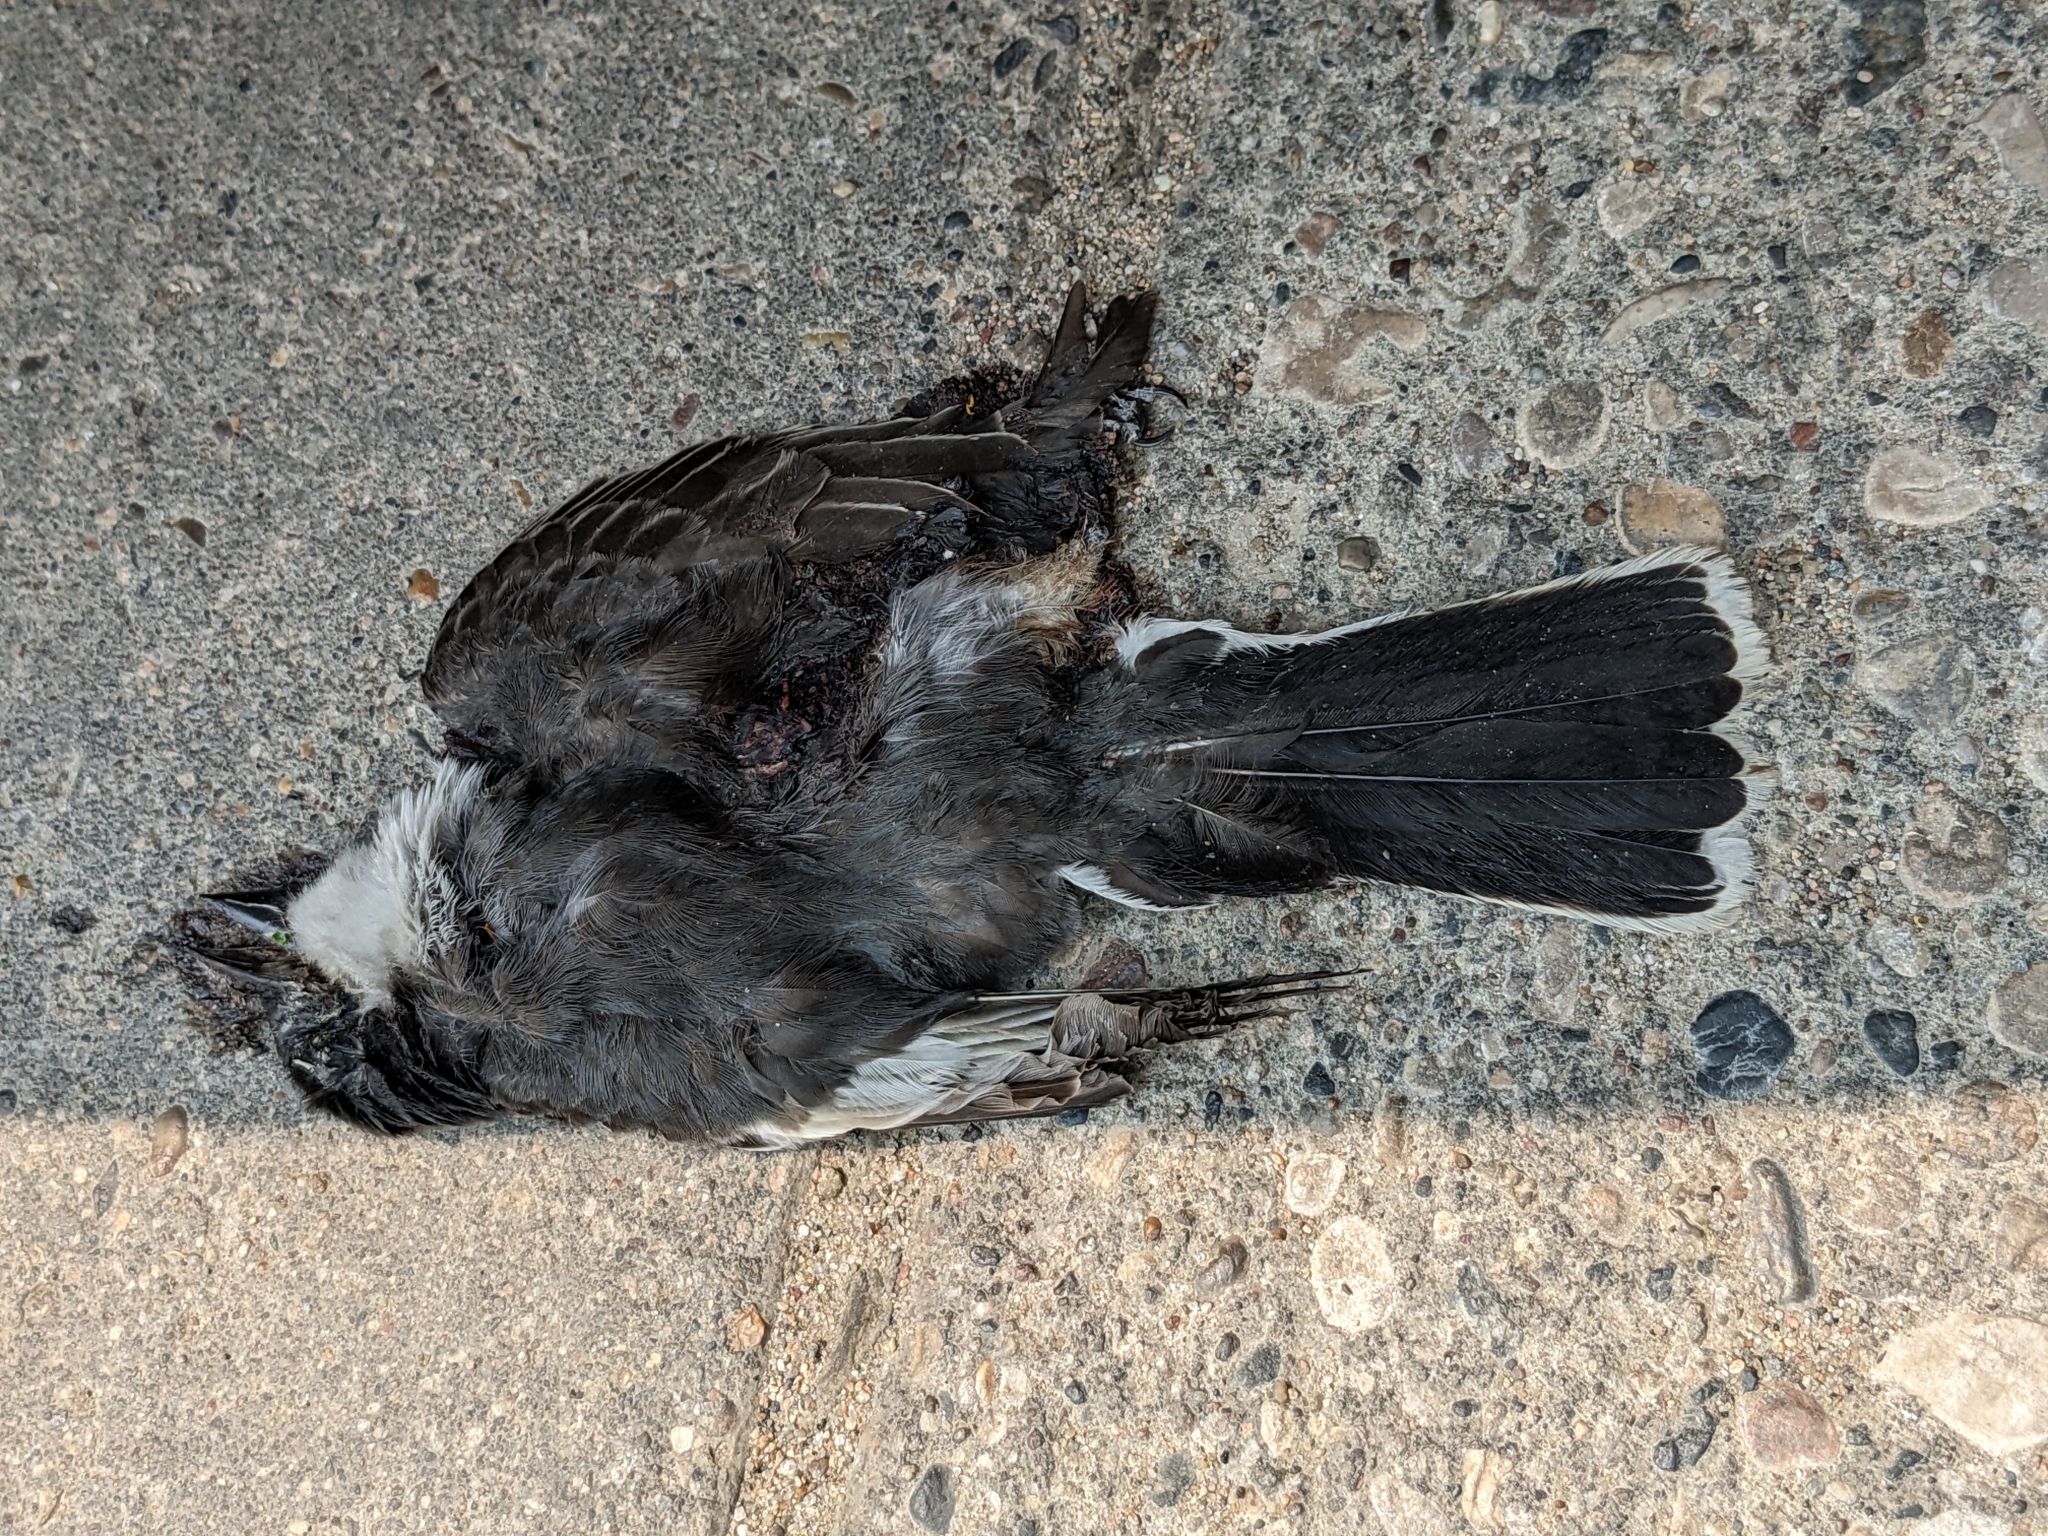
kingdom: Animalia
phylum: Chordata
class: Aves
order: Passeriformes
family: Tyrannidae
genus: Tyrannus
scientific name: Tyrannus tyrannus
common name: Eastern kingbird
